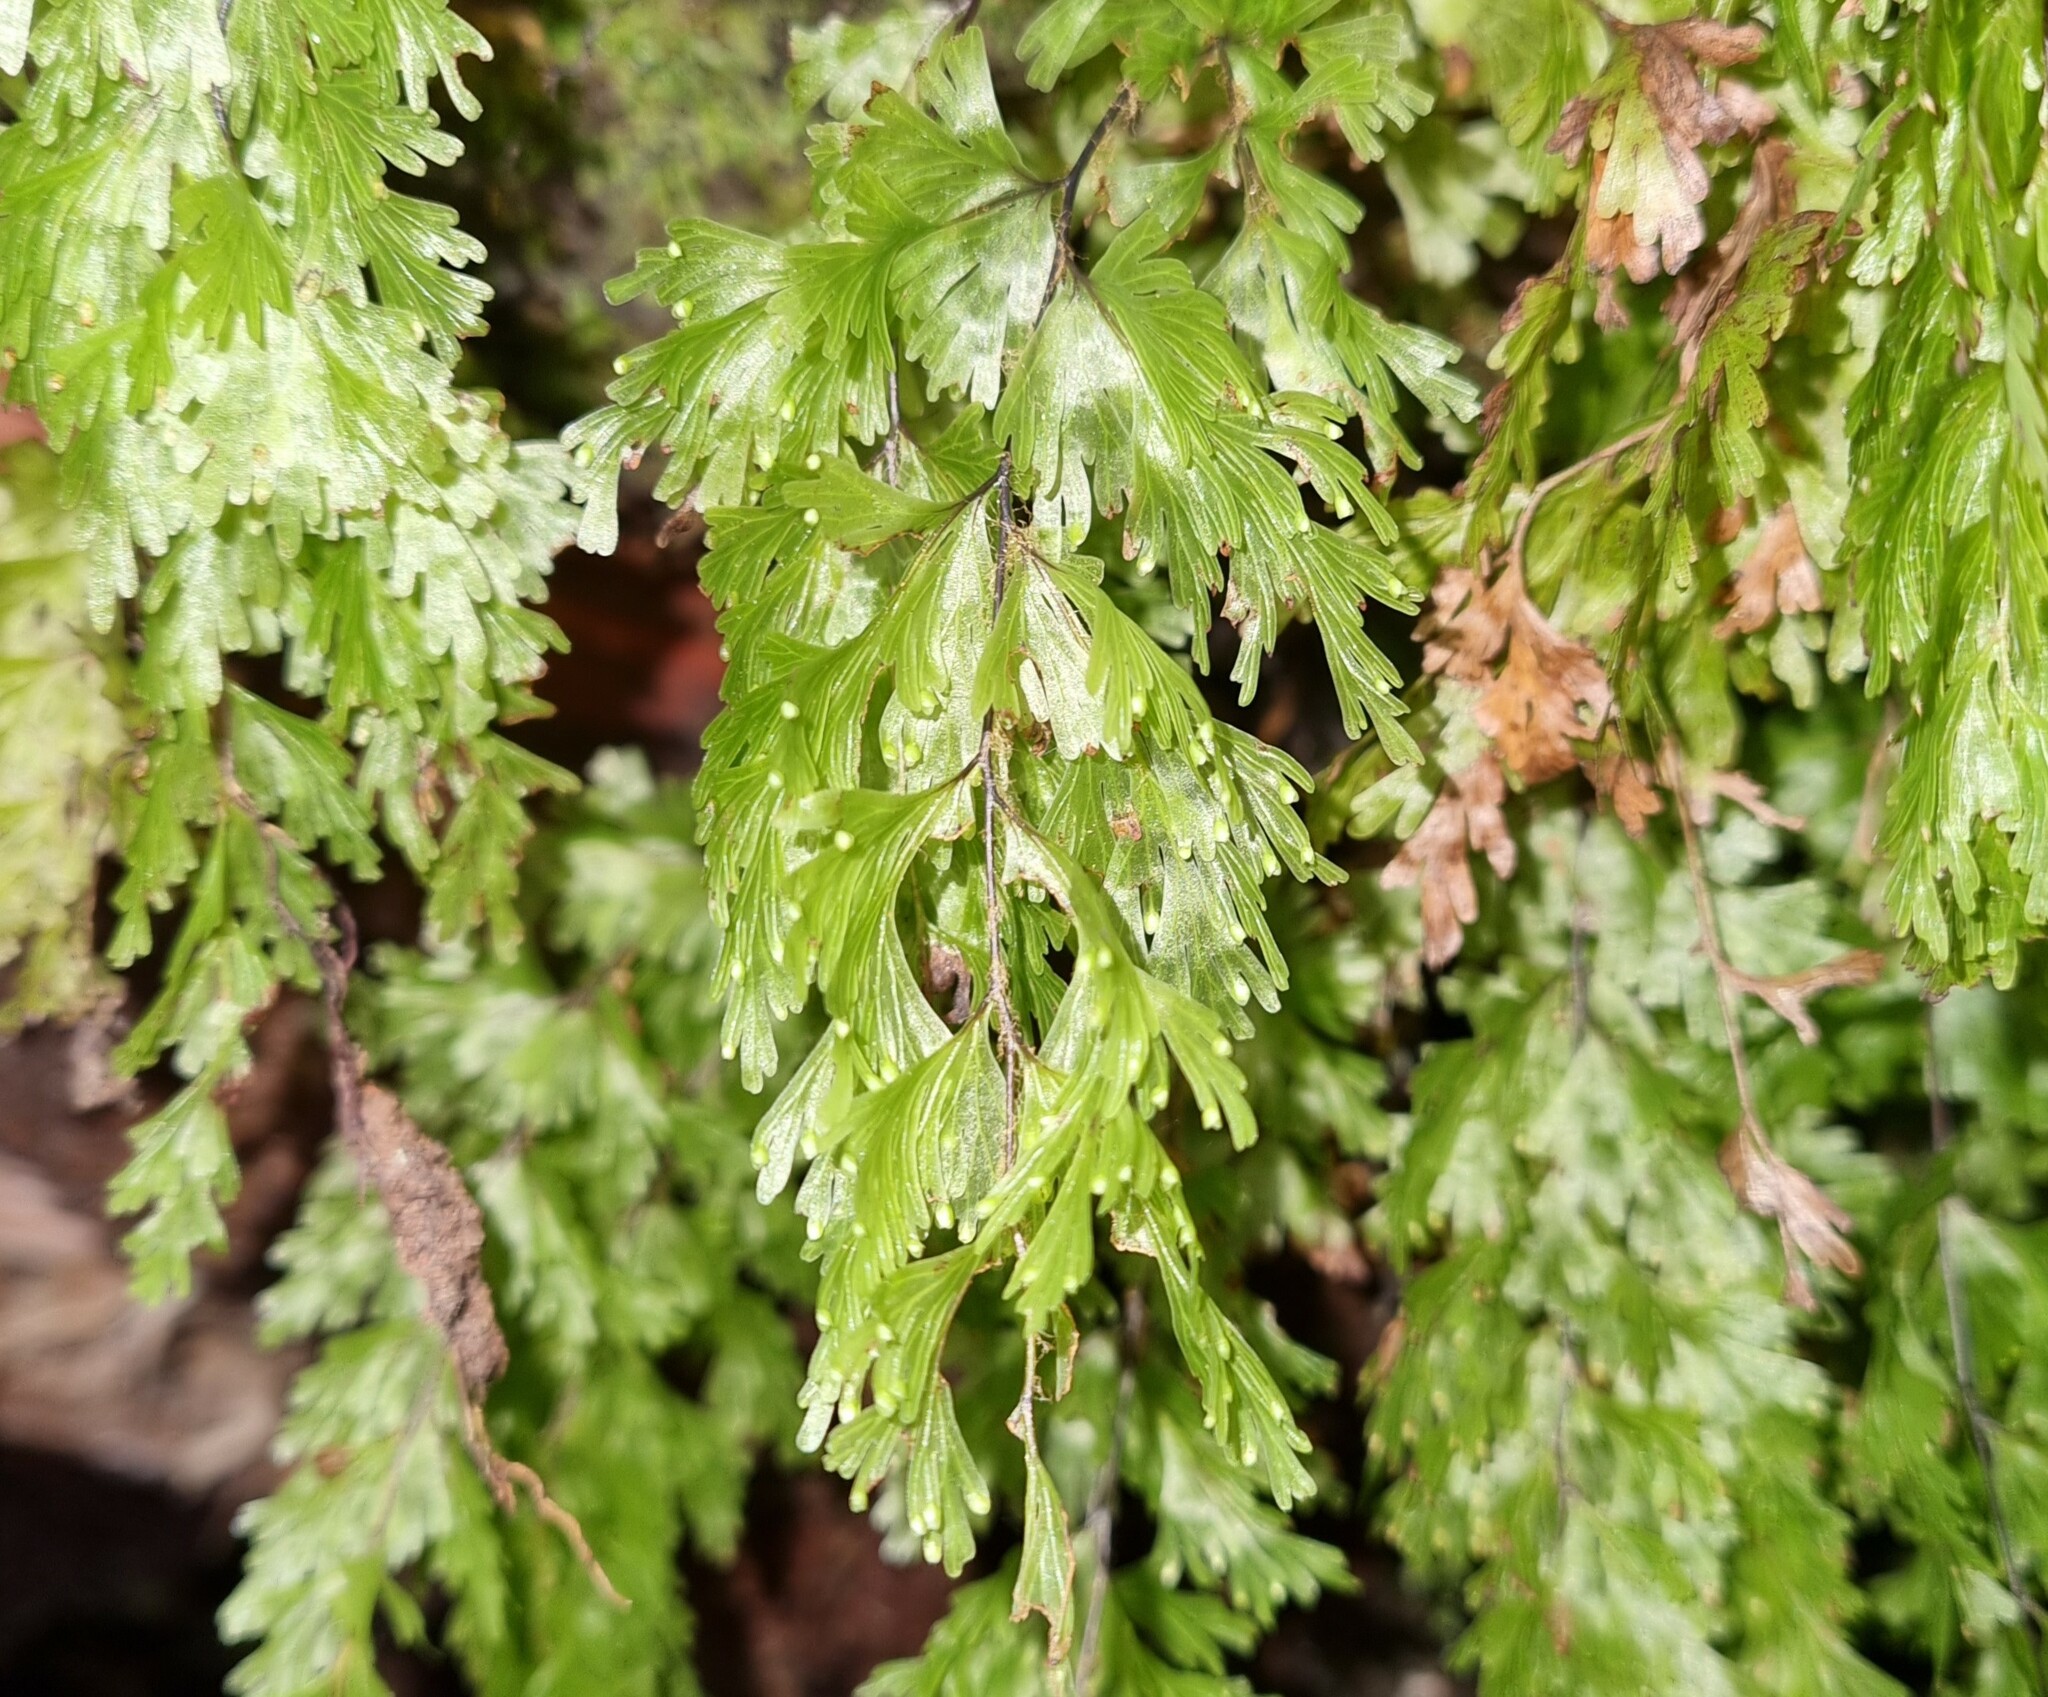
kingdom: Plantae
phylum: Tracheophyta
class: Polypodiopsida
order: Hymenophyllales
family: Hymenophyllaceae
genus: Hymenophyllum
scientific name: Hymenophyllum flabellatum
